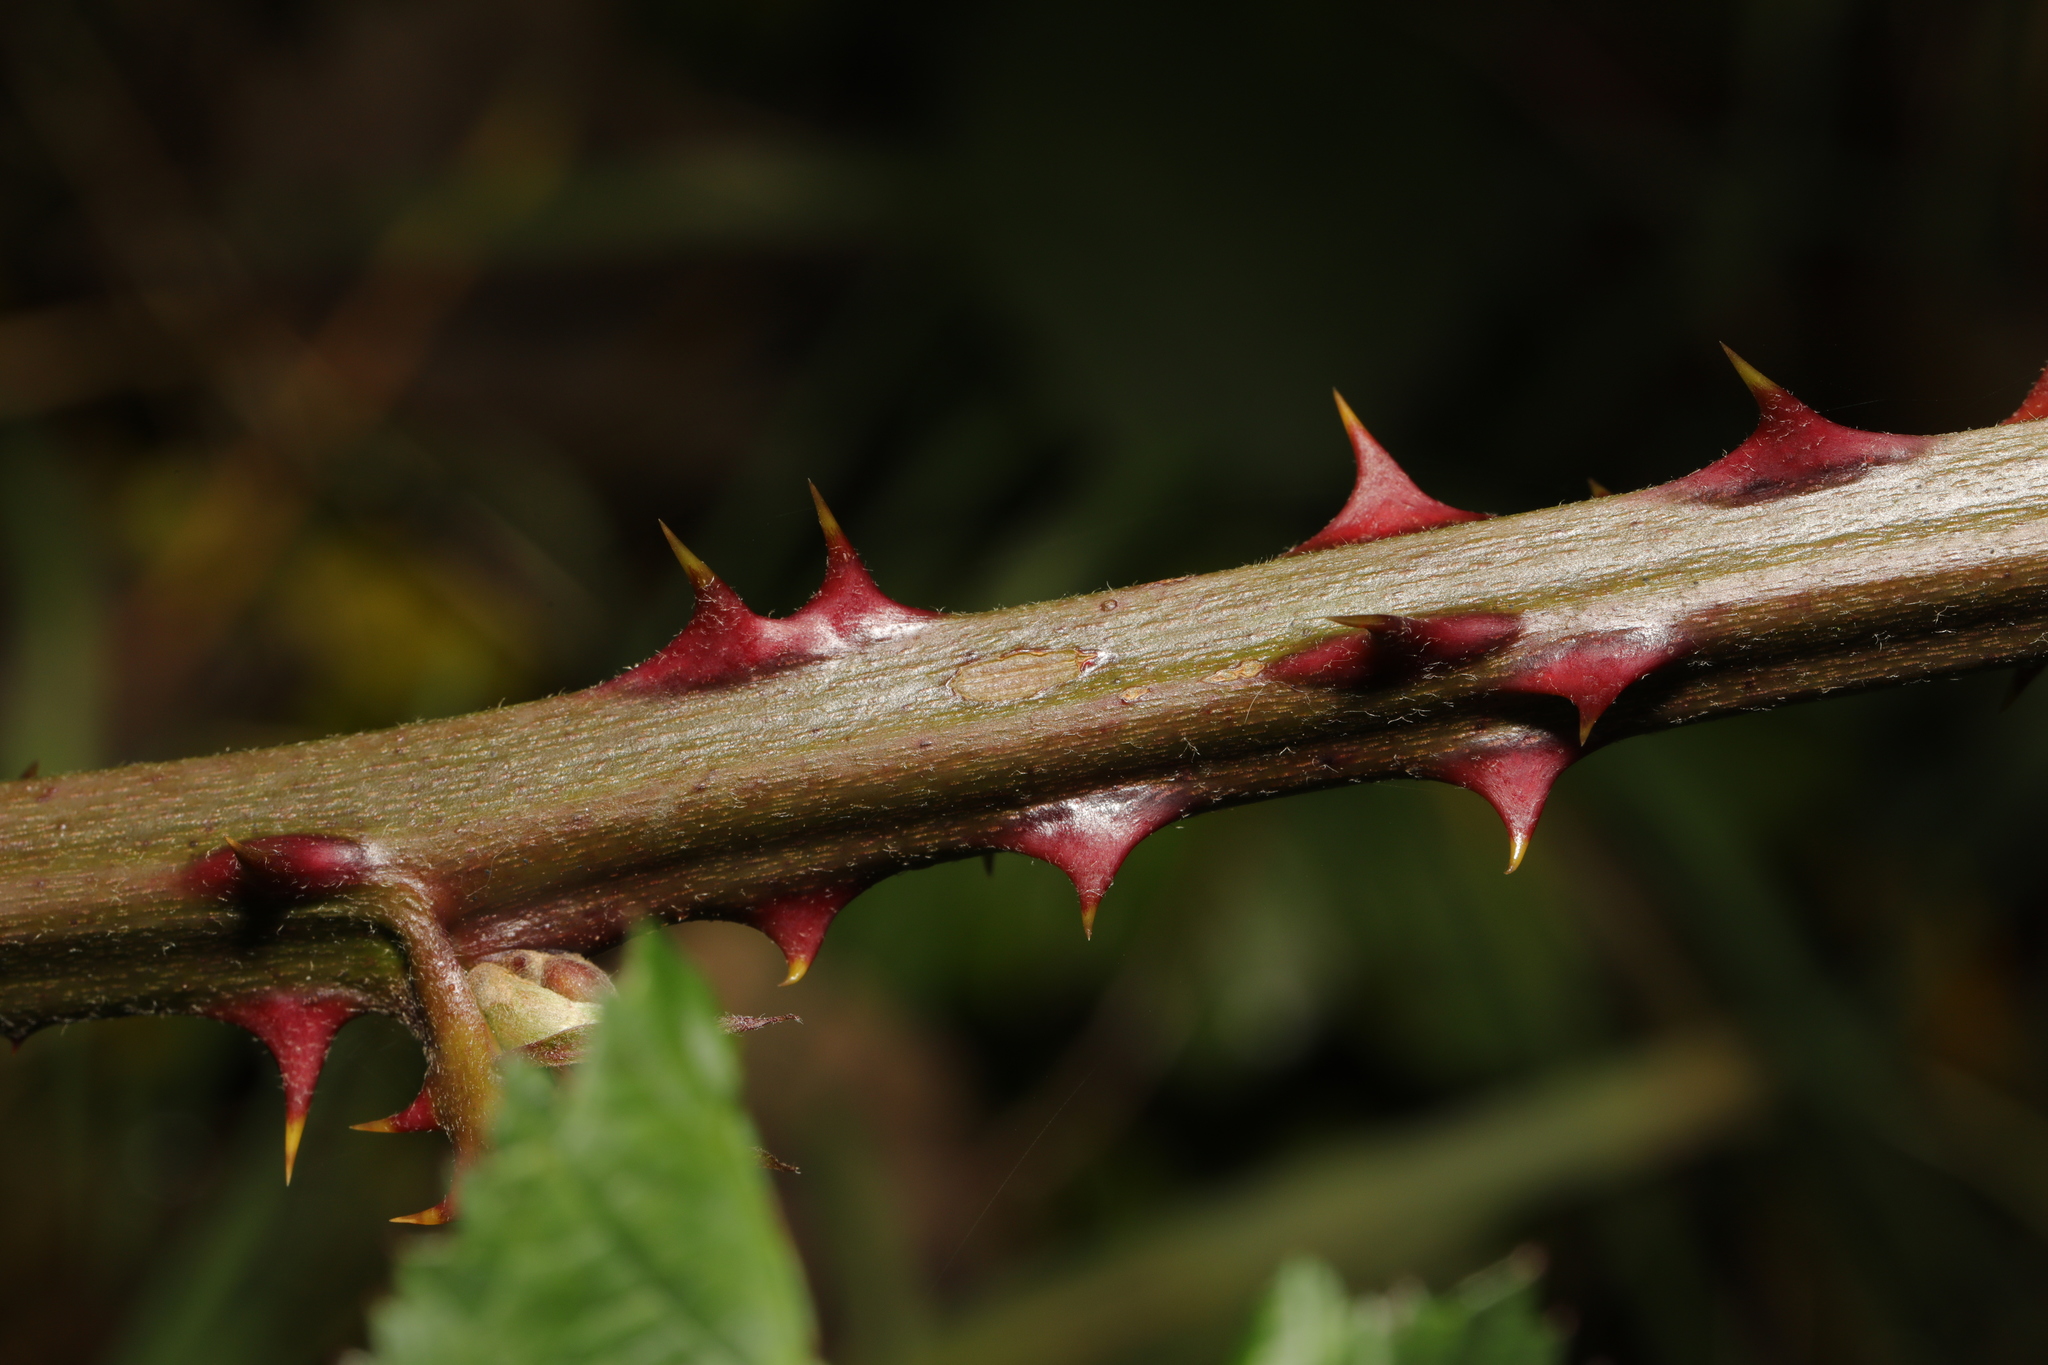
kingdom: Plantae
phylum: Tracheophyta
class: Magnoliopsida
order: Rosales
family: Rosaceae
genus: Rubus
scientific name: Rubus armeniacus
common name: Himalayan blackberry
